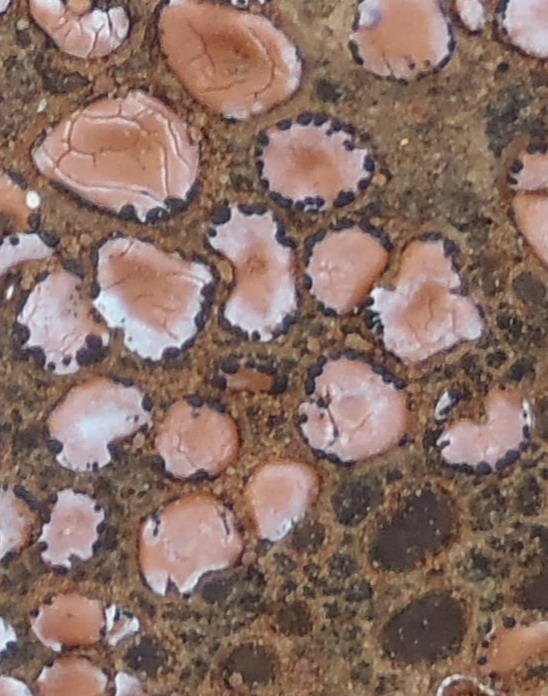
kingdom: Fungi
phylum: Ascomycota
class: Lecanoromycetes
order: Lecanorales
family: Psoraceae
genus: Psora
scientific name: Psora crenata
